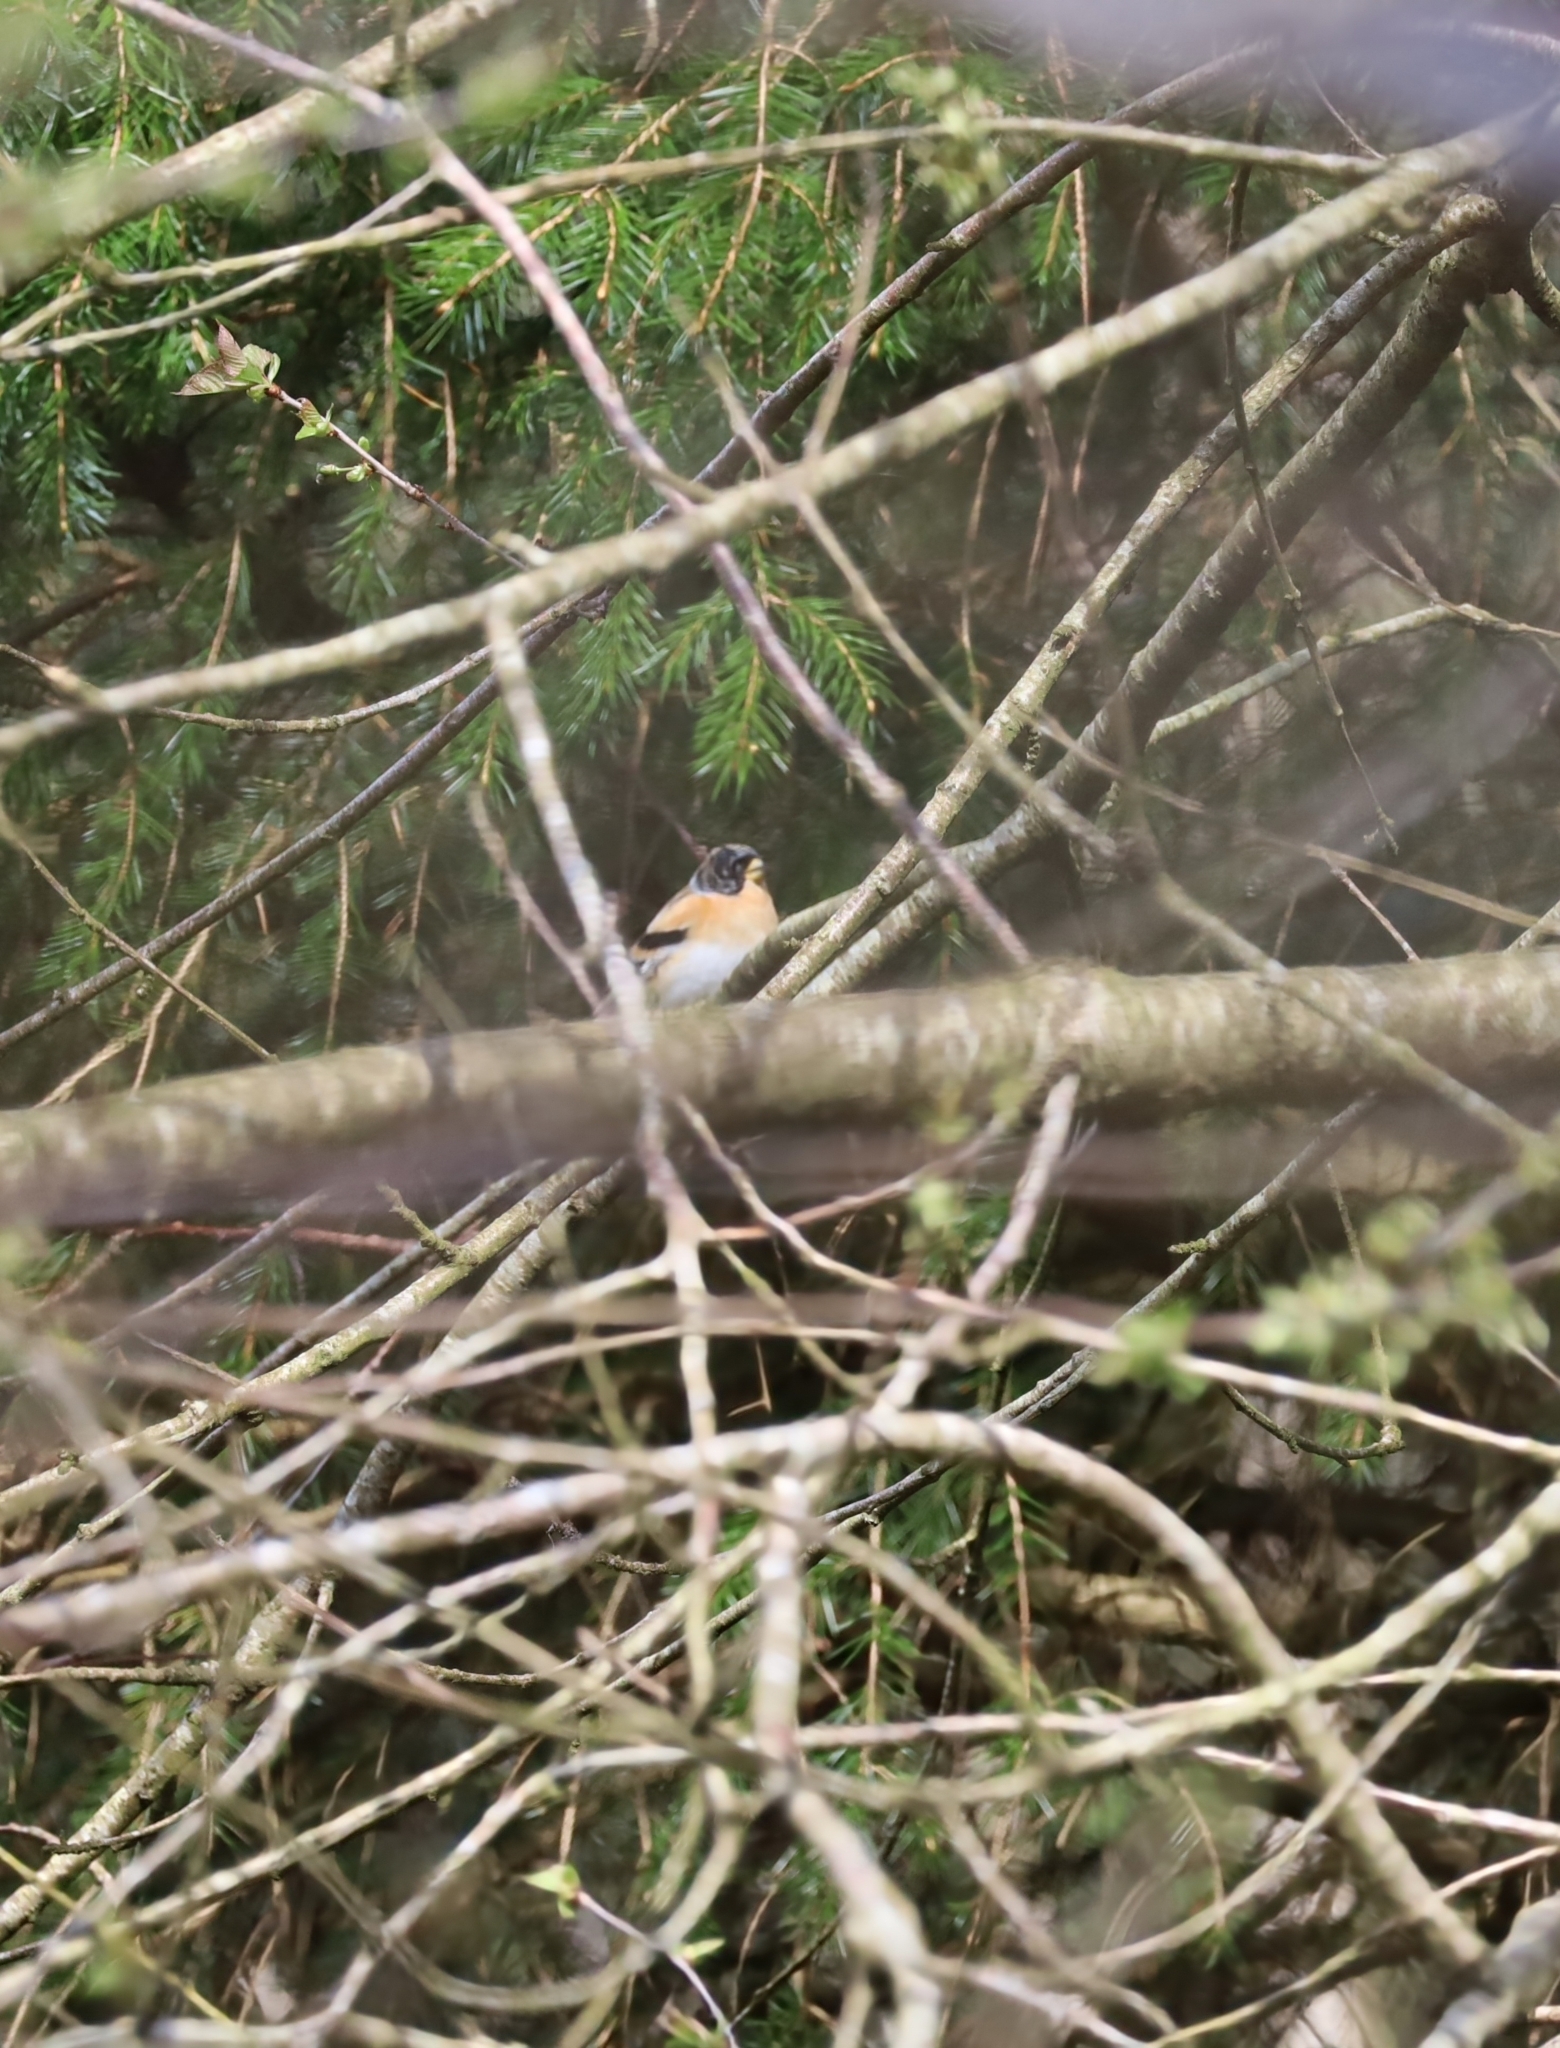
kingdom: Animalia
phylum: Chordata
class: Aves
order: Passeriformes
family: Fringillidae
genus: Fringilla
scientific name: Fringilla montifringilla
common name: Brambling
